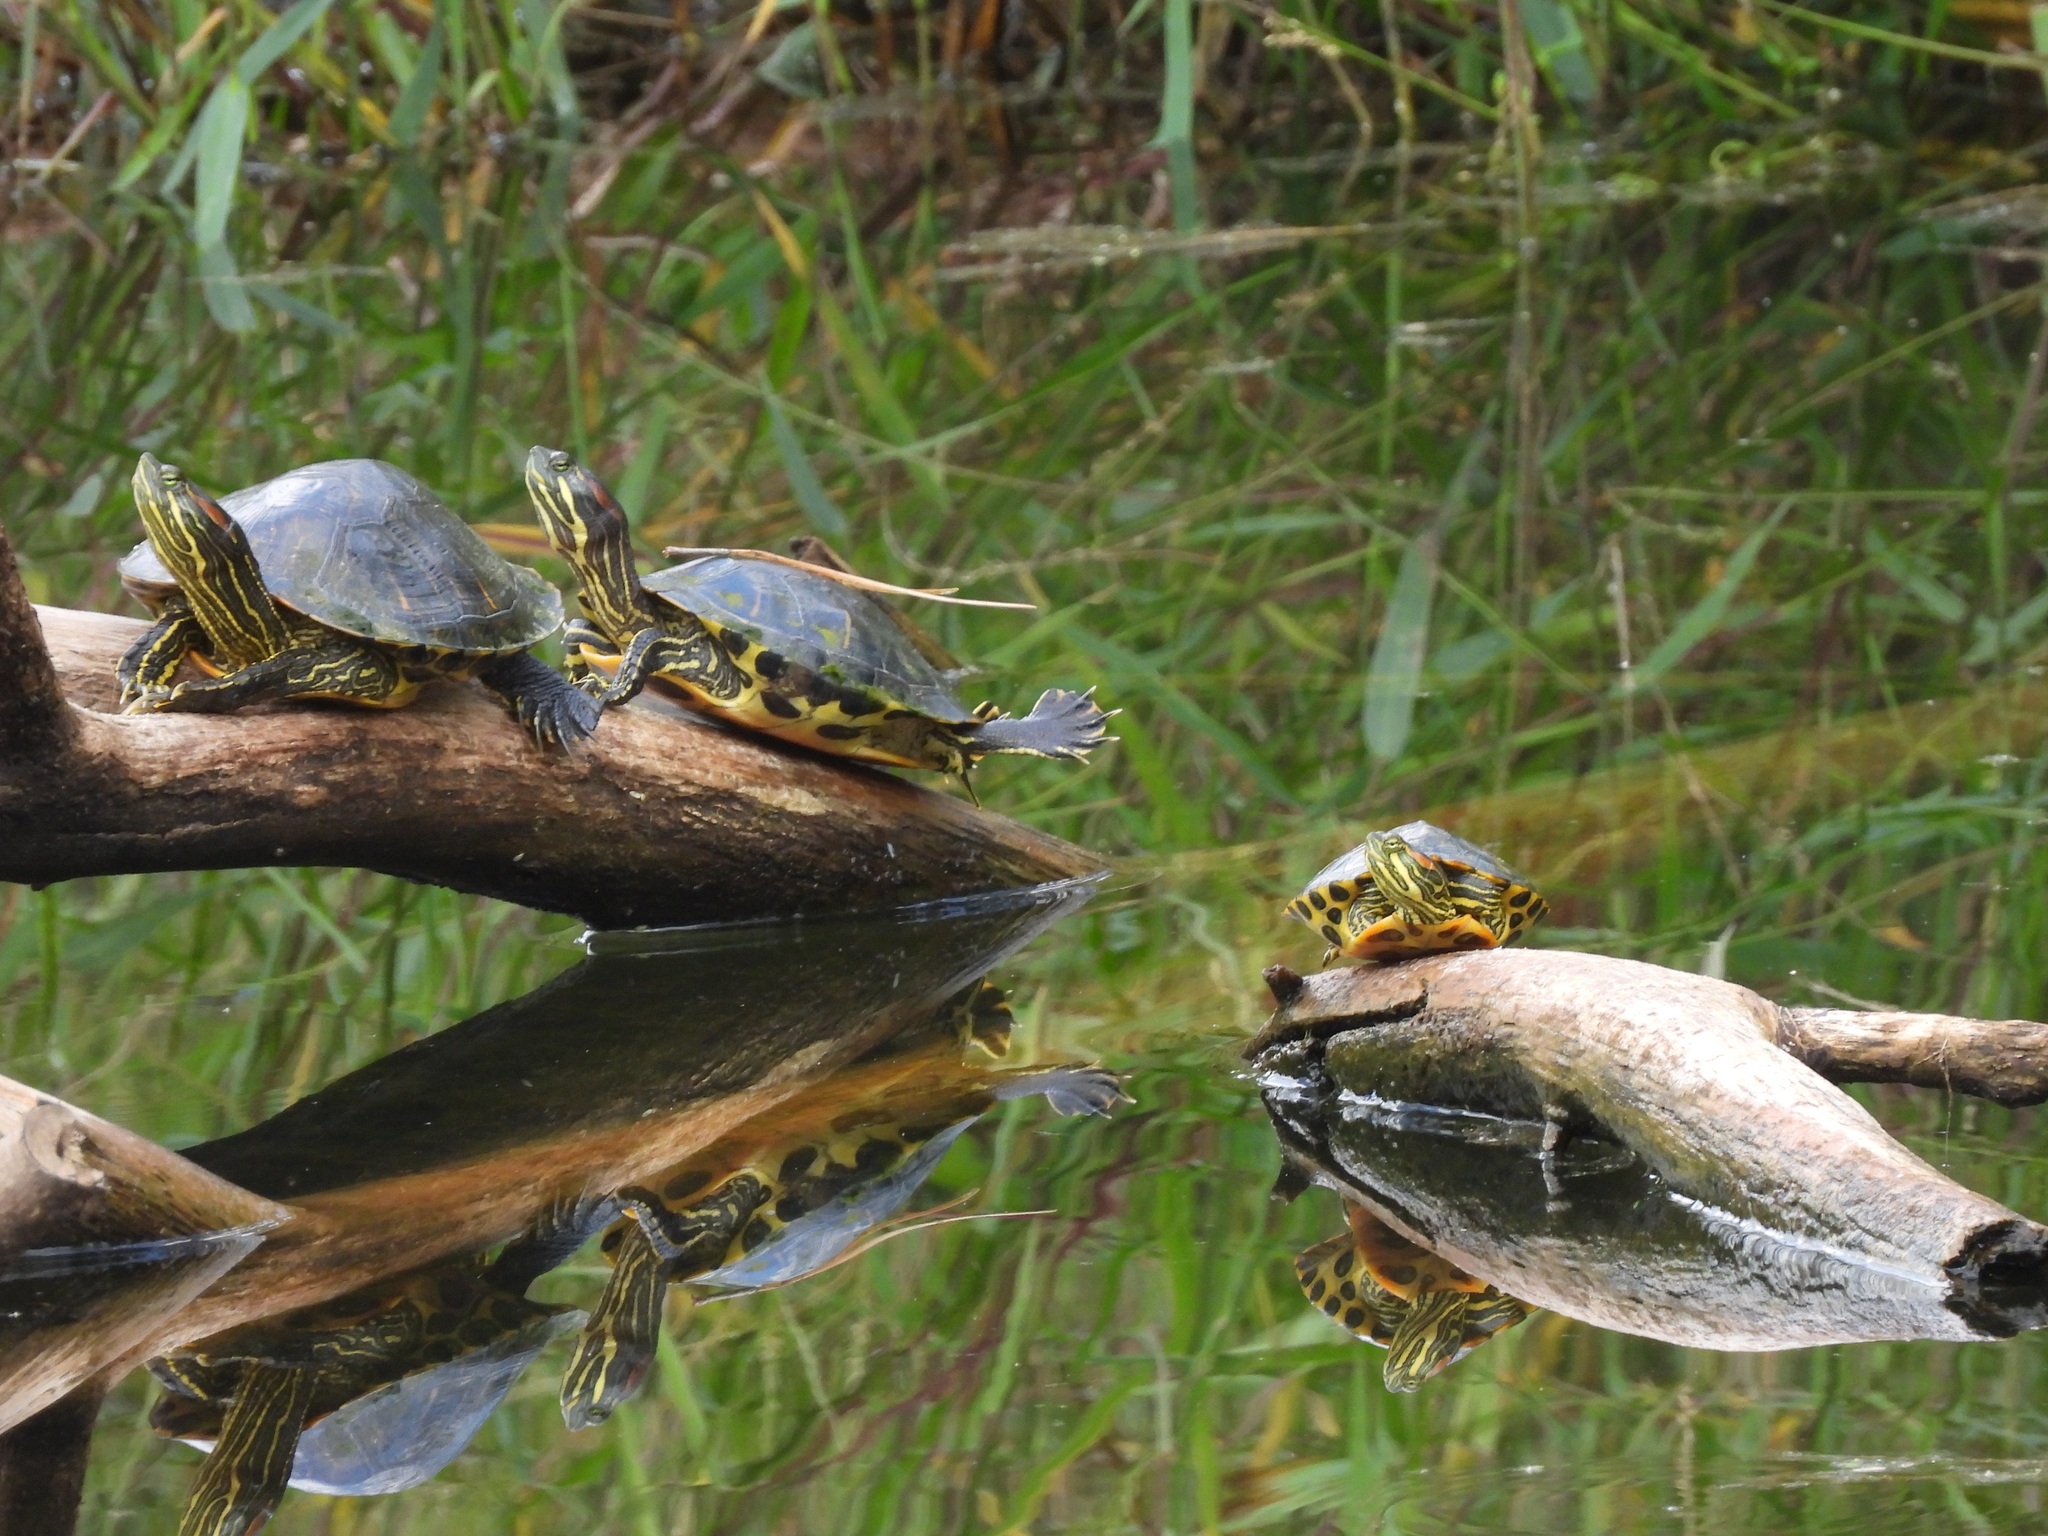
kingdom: Animalia
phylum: Chordata
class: Testudines
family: Emydidae
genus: Trachemys
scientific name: Trachemys scripta
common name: Slider
